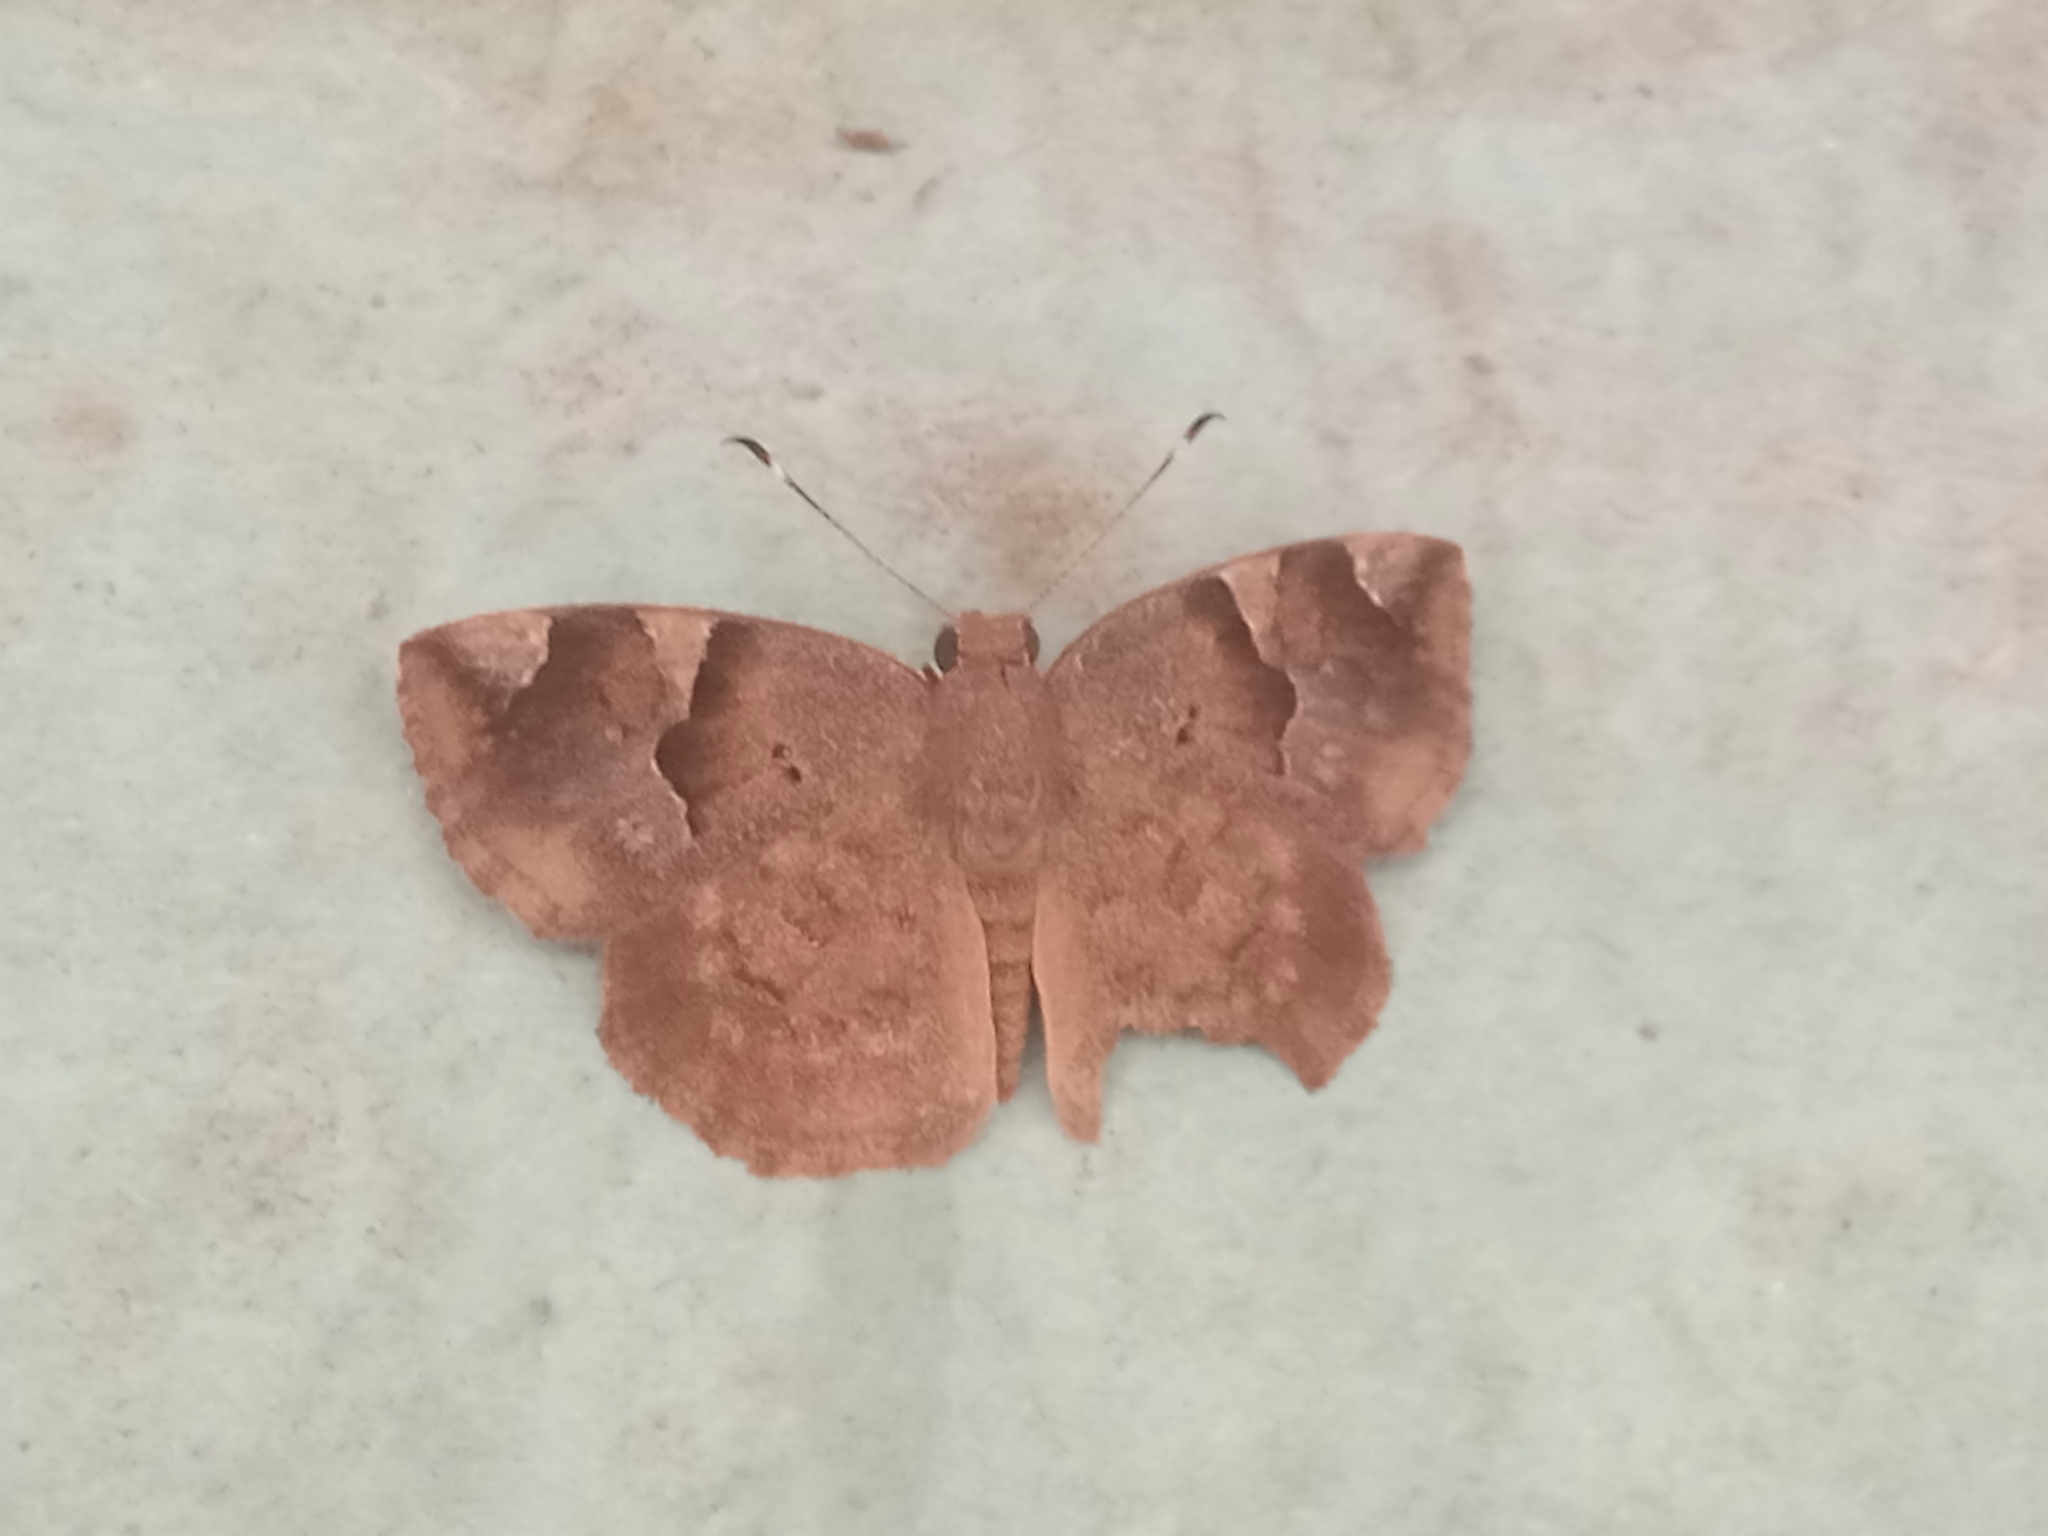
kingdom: Animalia
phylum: Arthropoda
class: Insecta
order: Lepidoptera
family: Hesperiidae
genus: Sarangesa
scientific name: Sarangesa laelius
